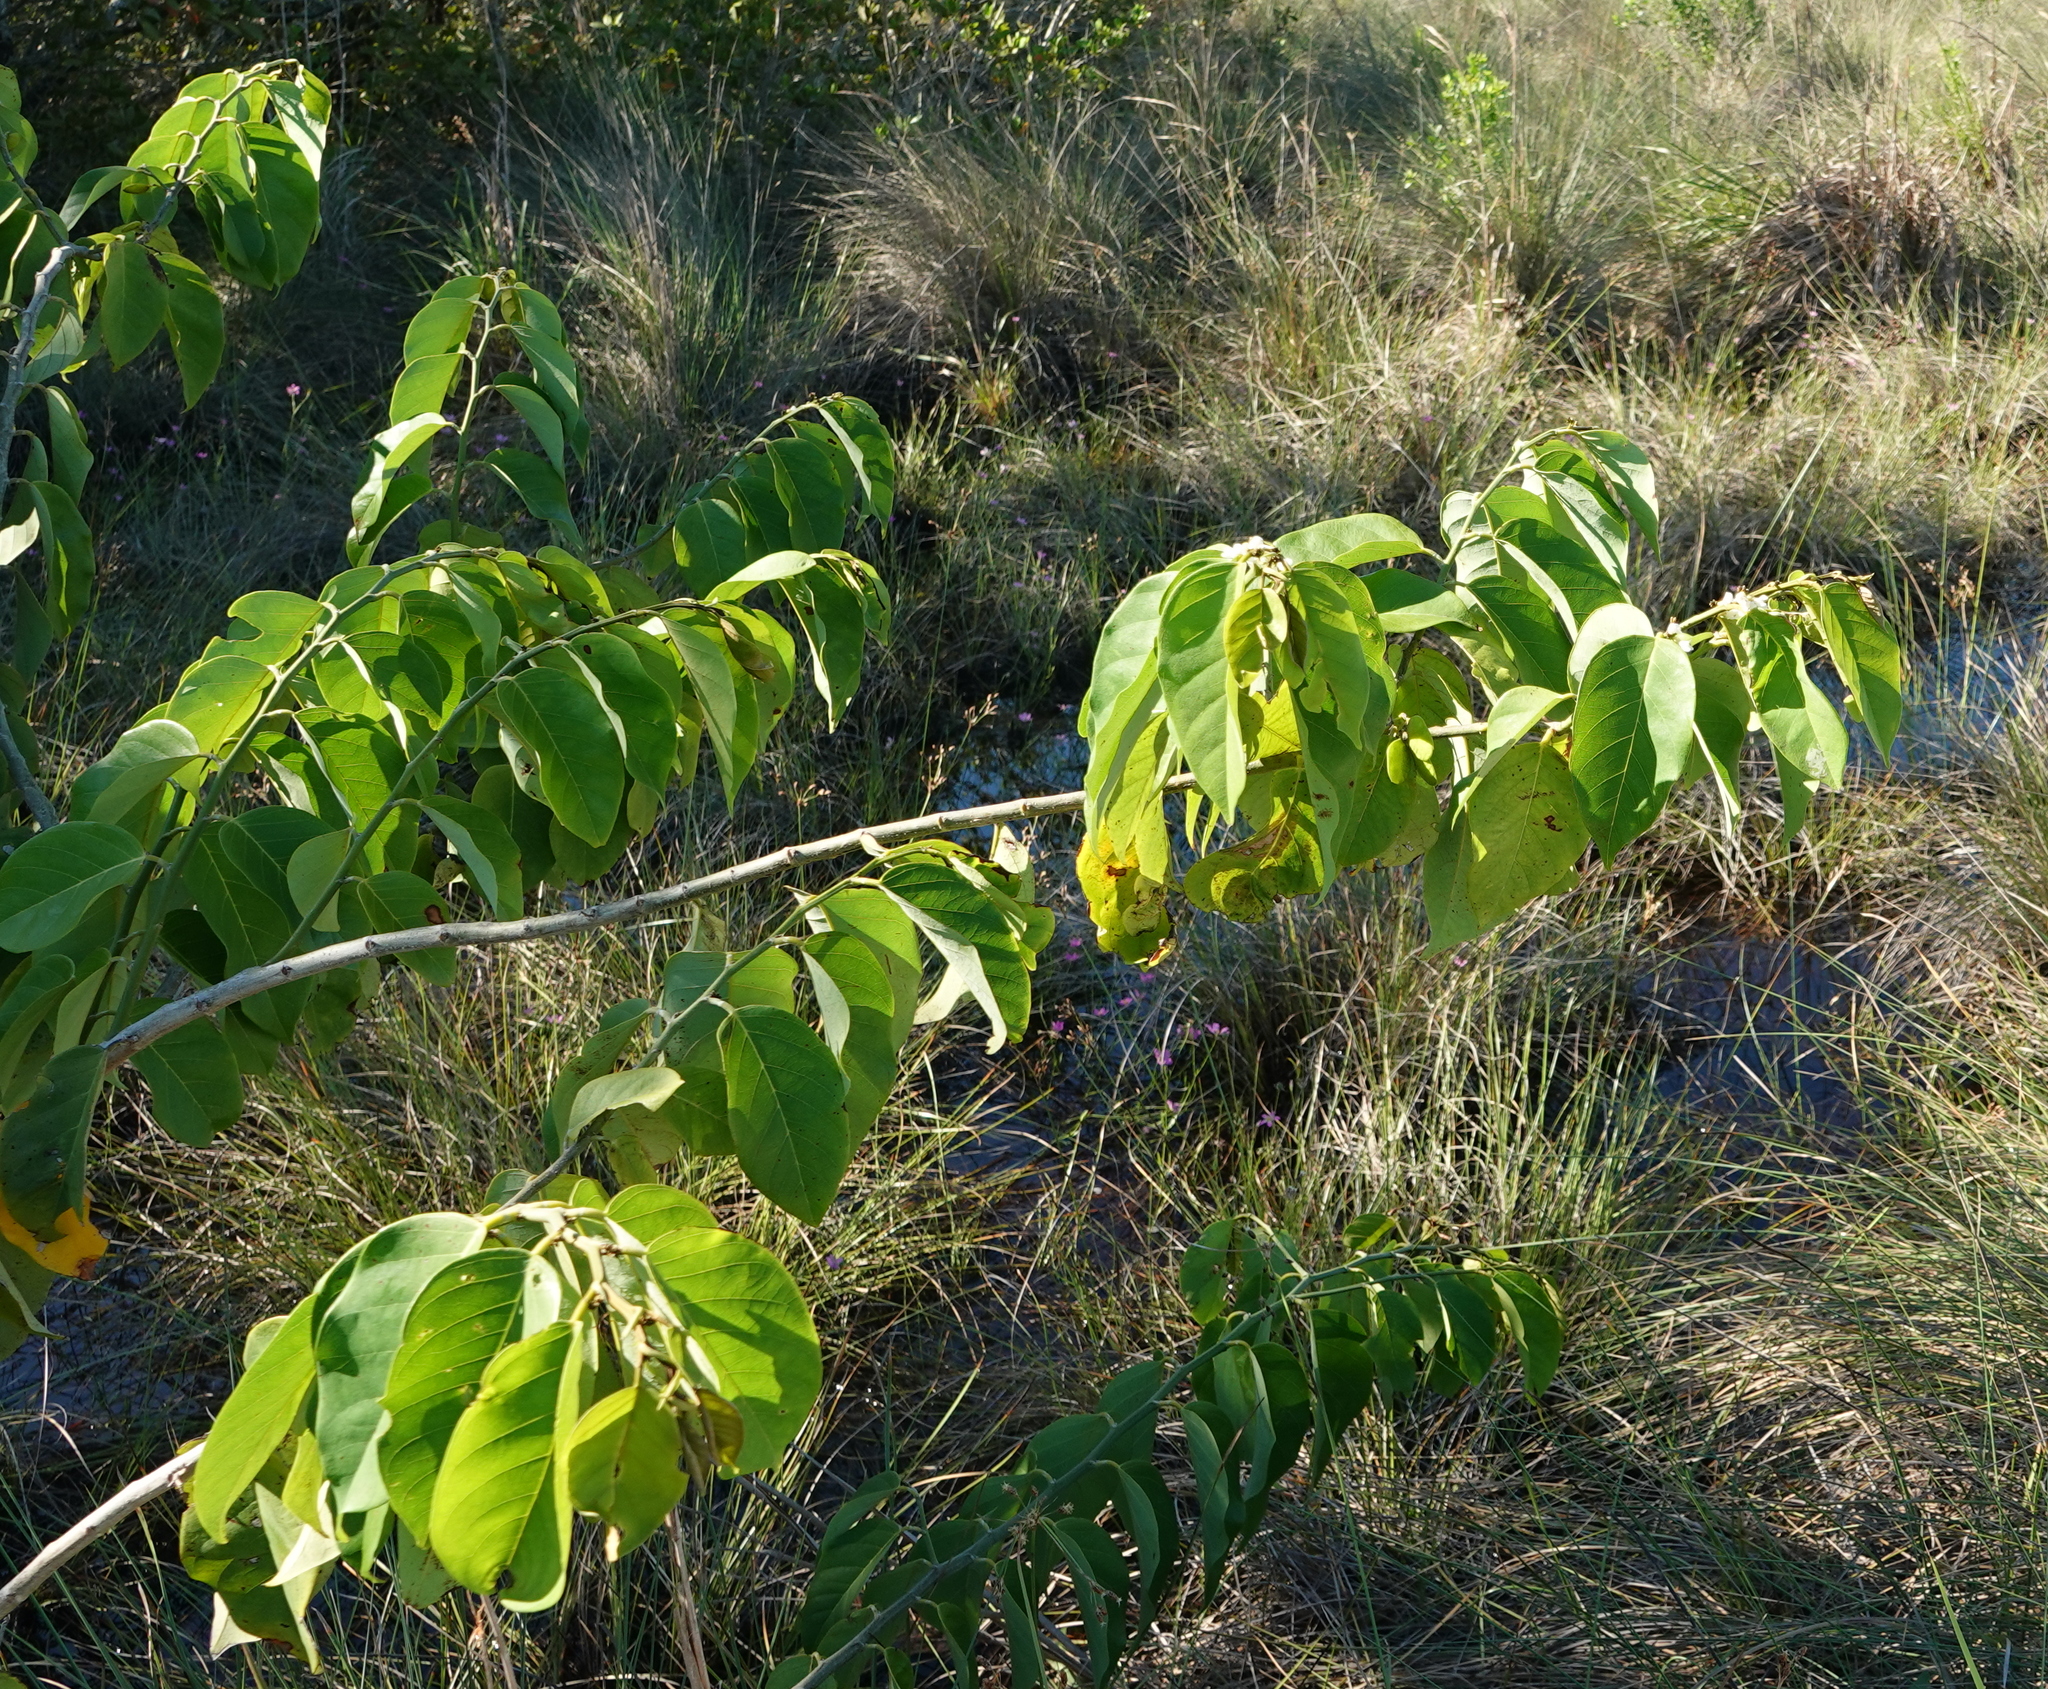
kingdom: Plantae
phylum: Tracheophyta
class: Magnoliopsida
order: Fabales
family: Fabaceae
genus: Dalbergia
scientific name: Dalbergia ecastaphyllum
